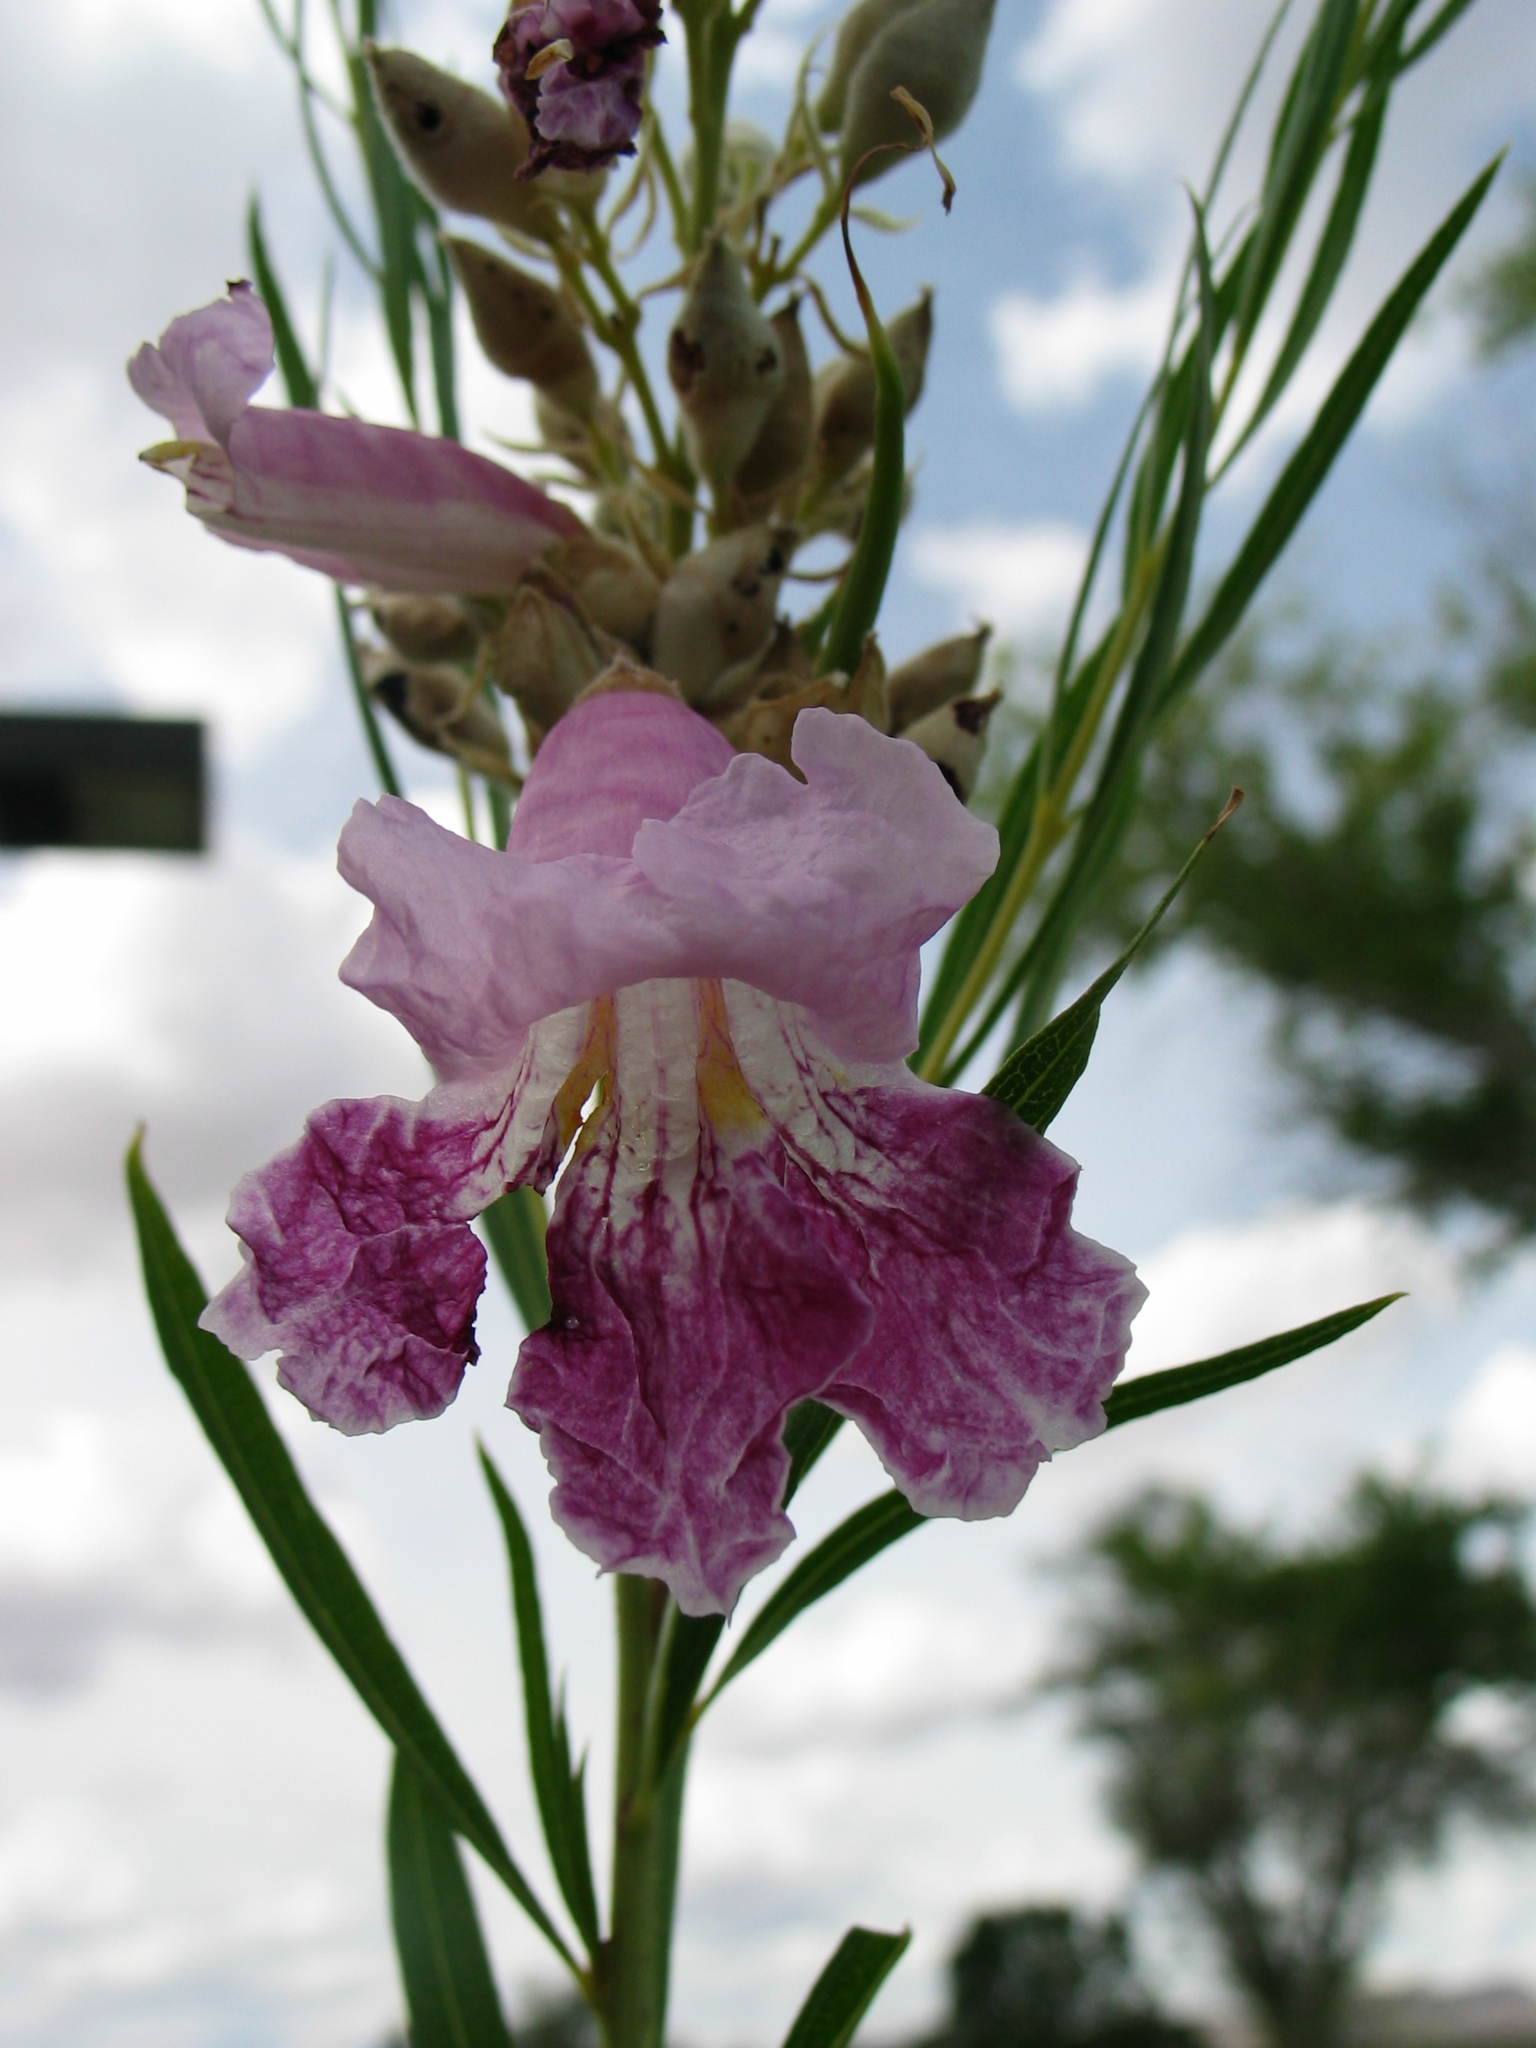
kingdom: Plantae
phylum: Tracheophyta
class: Magnoliopsida
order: Lamiales
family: Bignoniaceae
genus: Chilopsis
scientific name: Chilopsis linearis
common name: Desert-willow
